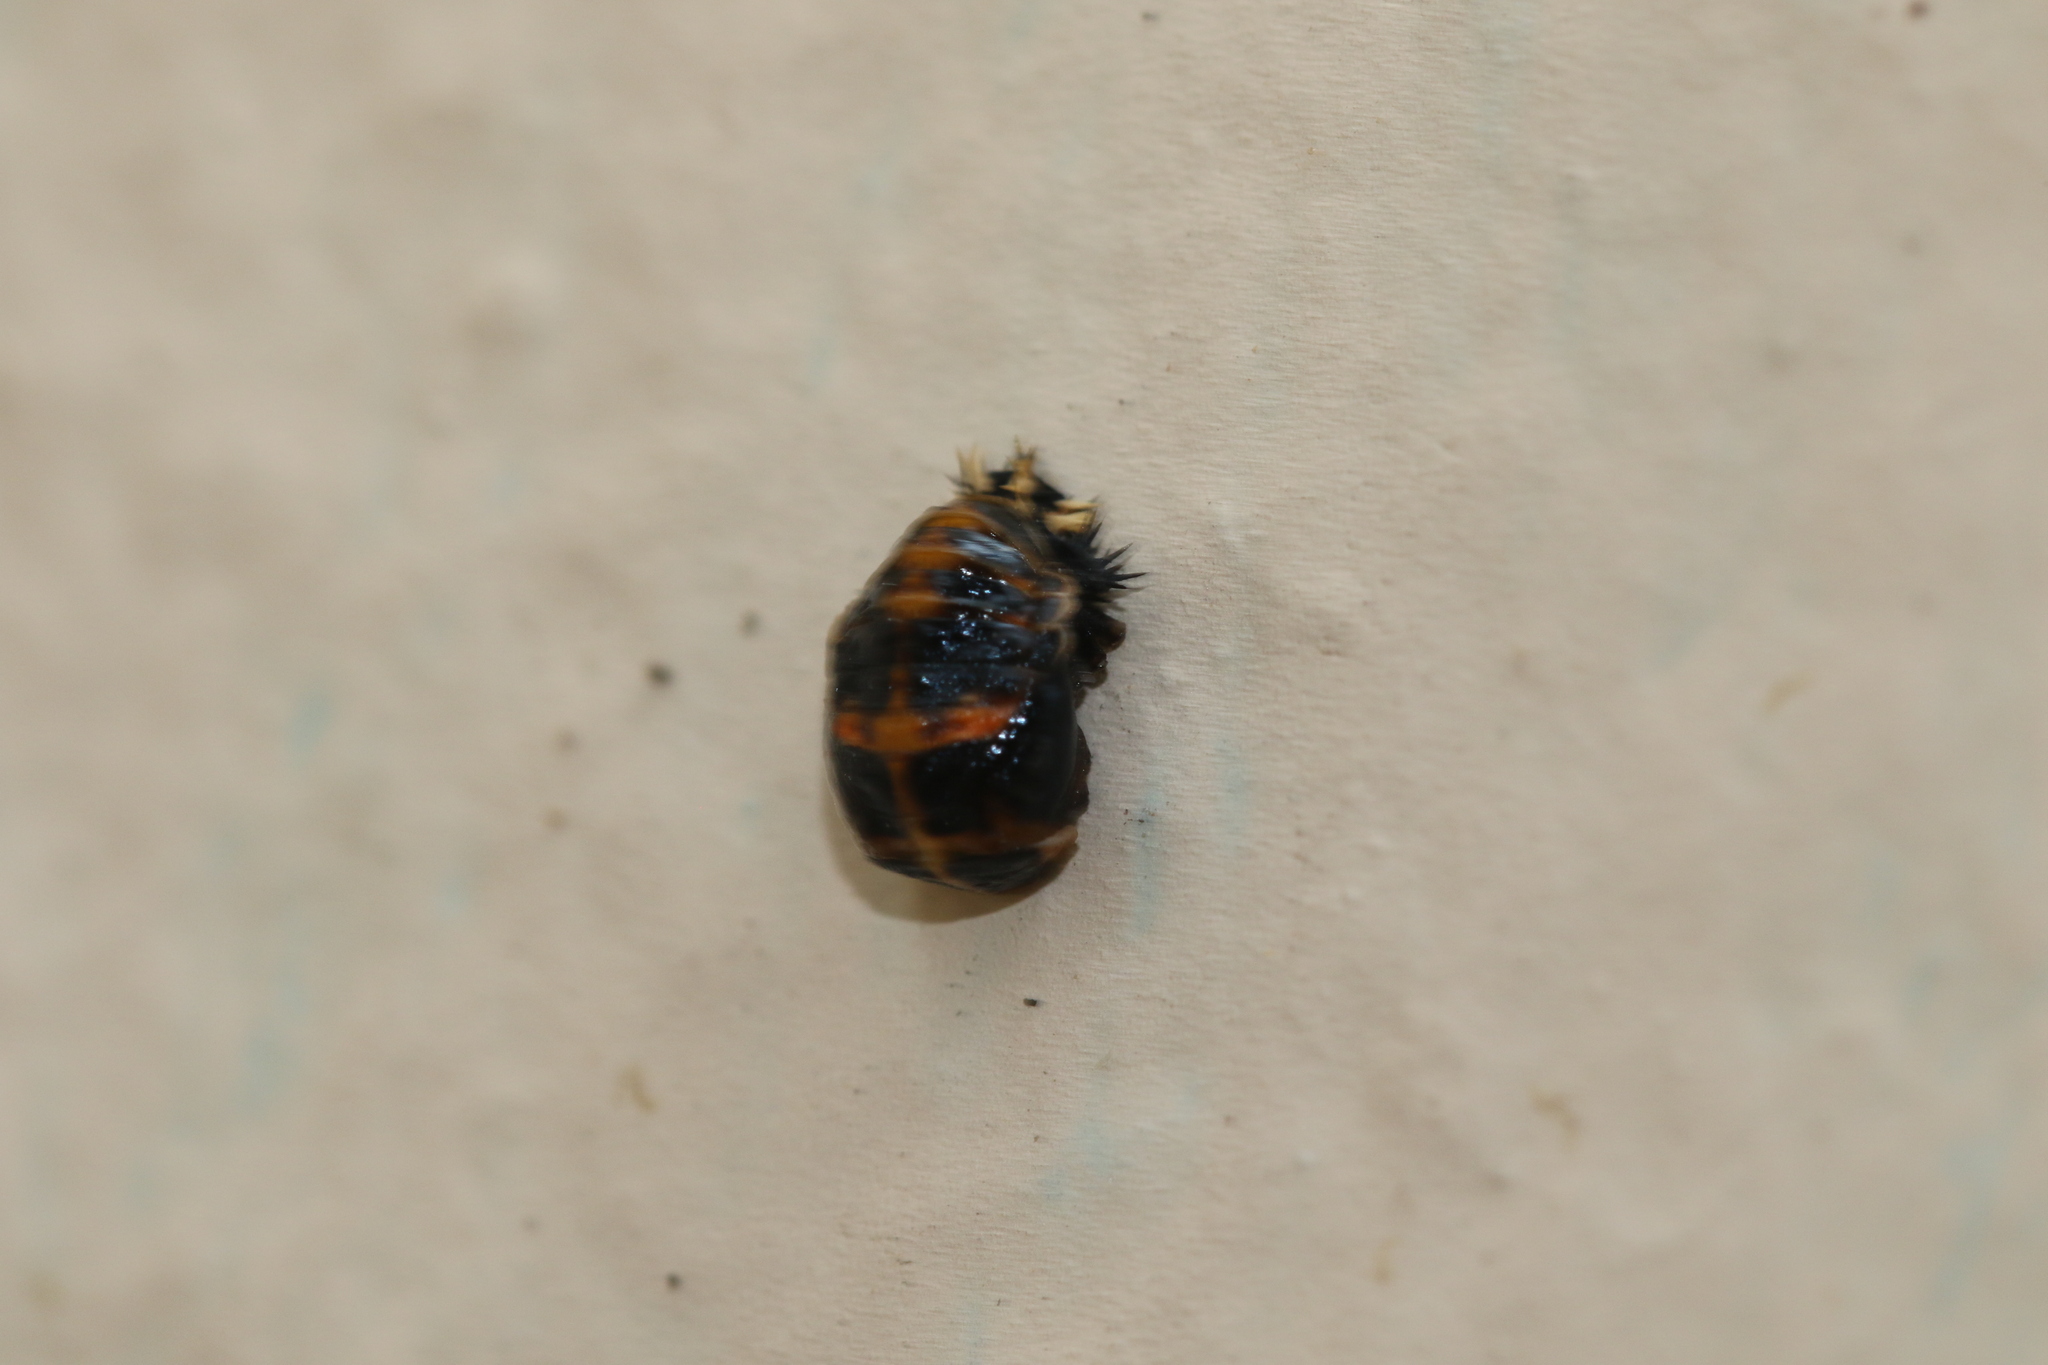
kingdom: Animalia
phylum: Arthropoda
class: Insecta
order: Coleoptera
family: Coccinellidae
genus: Harmonia
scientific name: Harmonia axyridis
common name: Harlequin ladybird
